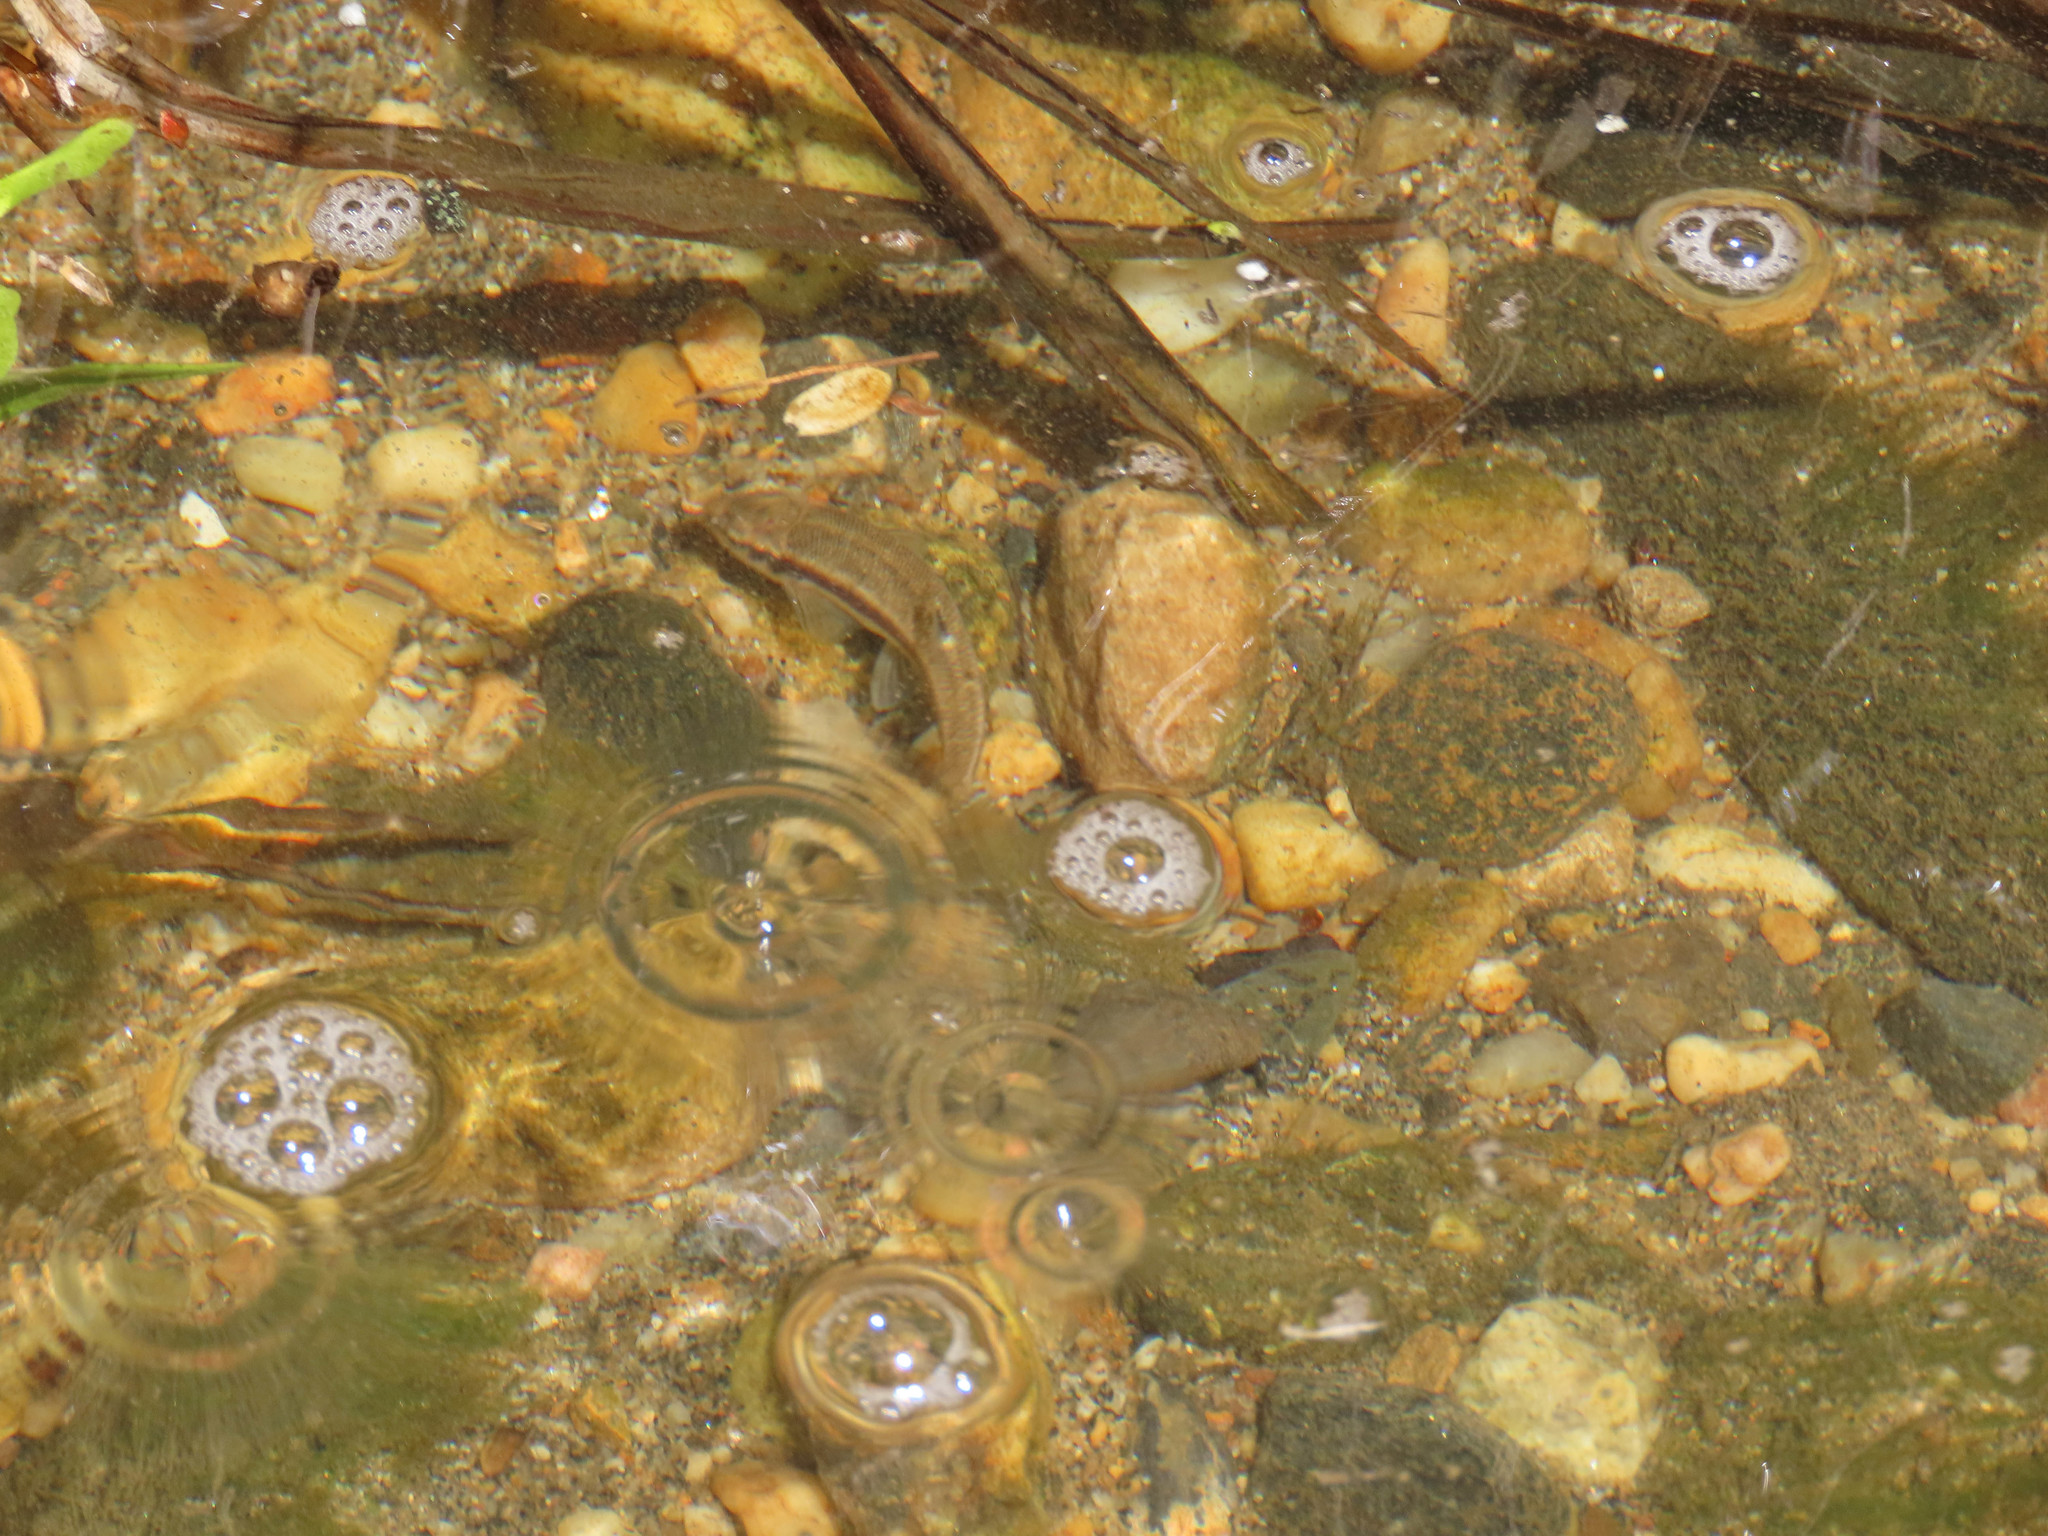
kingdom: Animalia
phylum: Chordata
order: Cypriniformes
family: Cyprinidae
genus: Rhinichthys
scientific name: Rhinichthys atratulus
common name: Eastern blacknose dace
